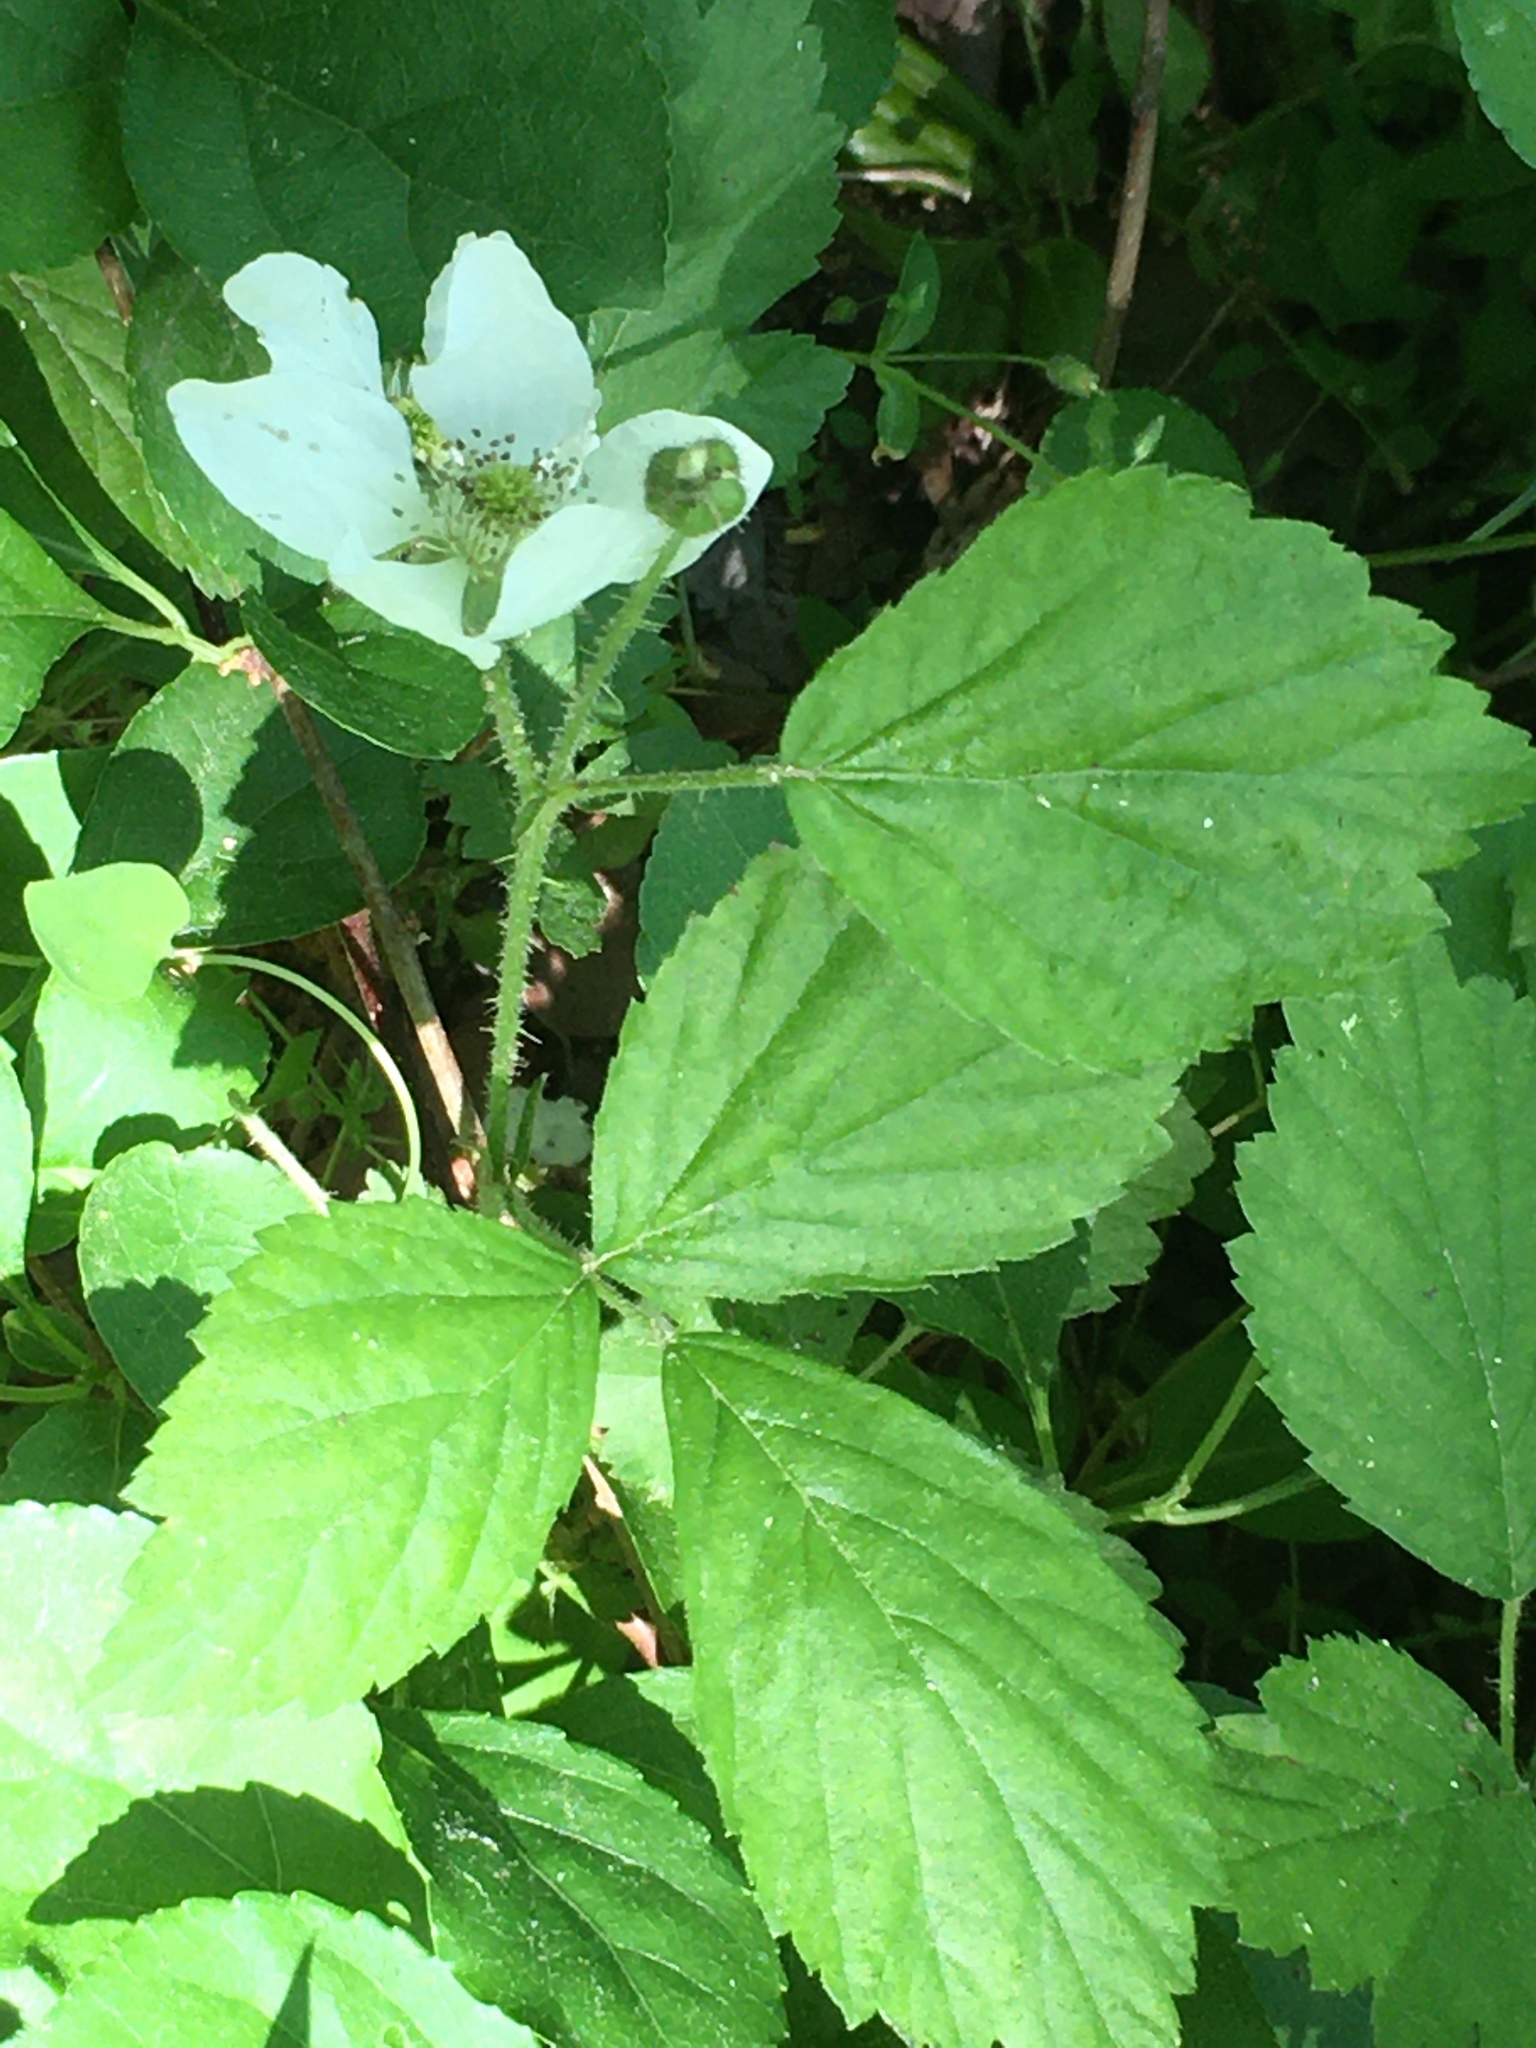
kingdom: Plantae
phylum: Tracheophyta
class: Magnoliopsida
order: Rosales
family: Rosaceae
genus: Rubus
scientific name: Rubus flagellaris
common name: American dewberry
